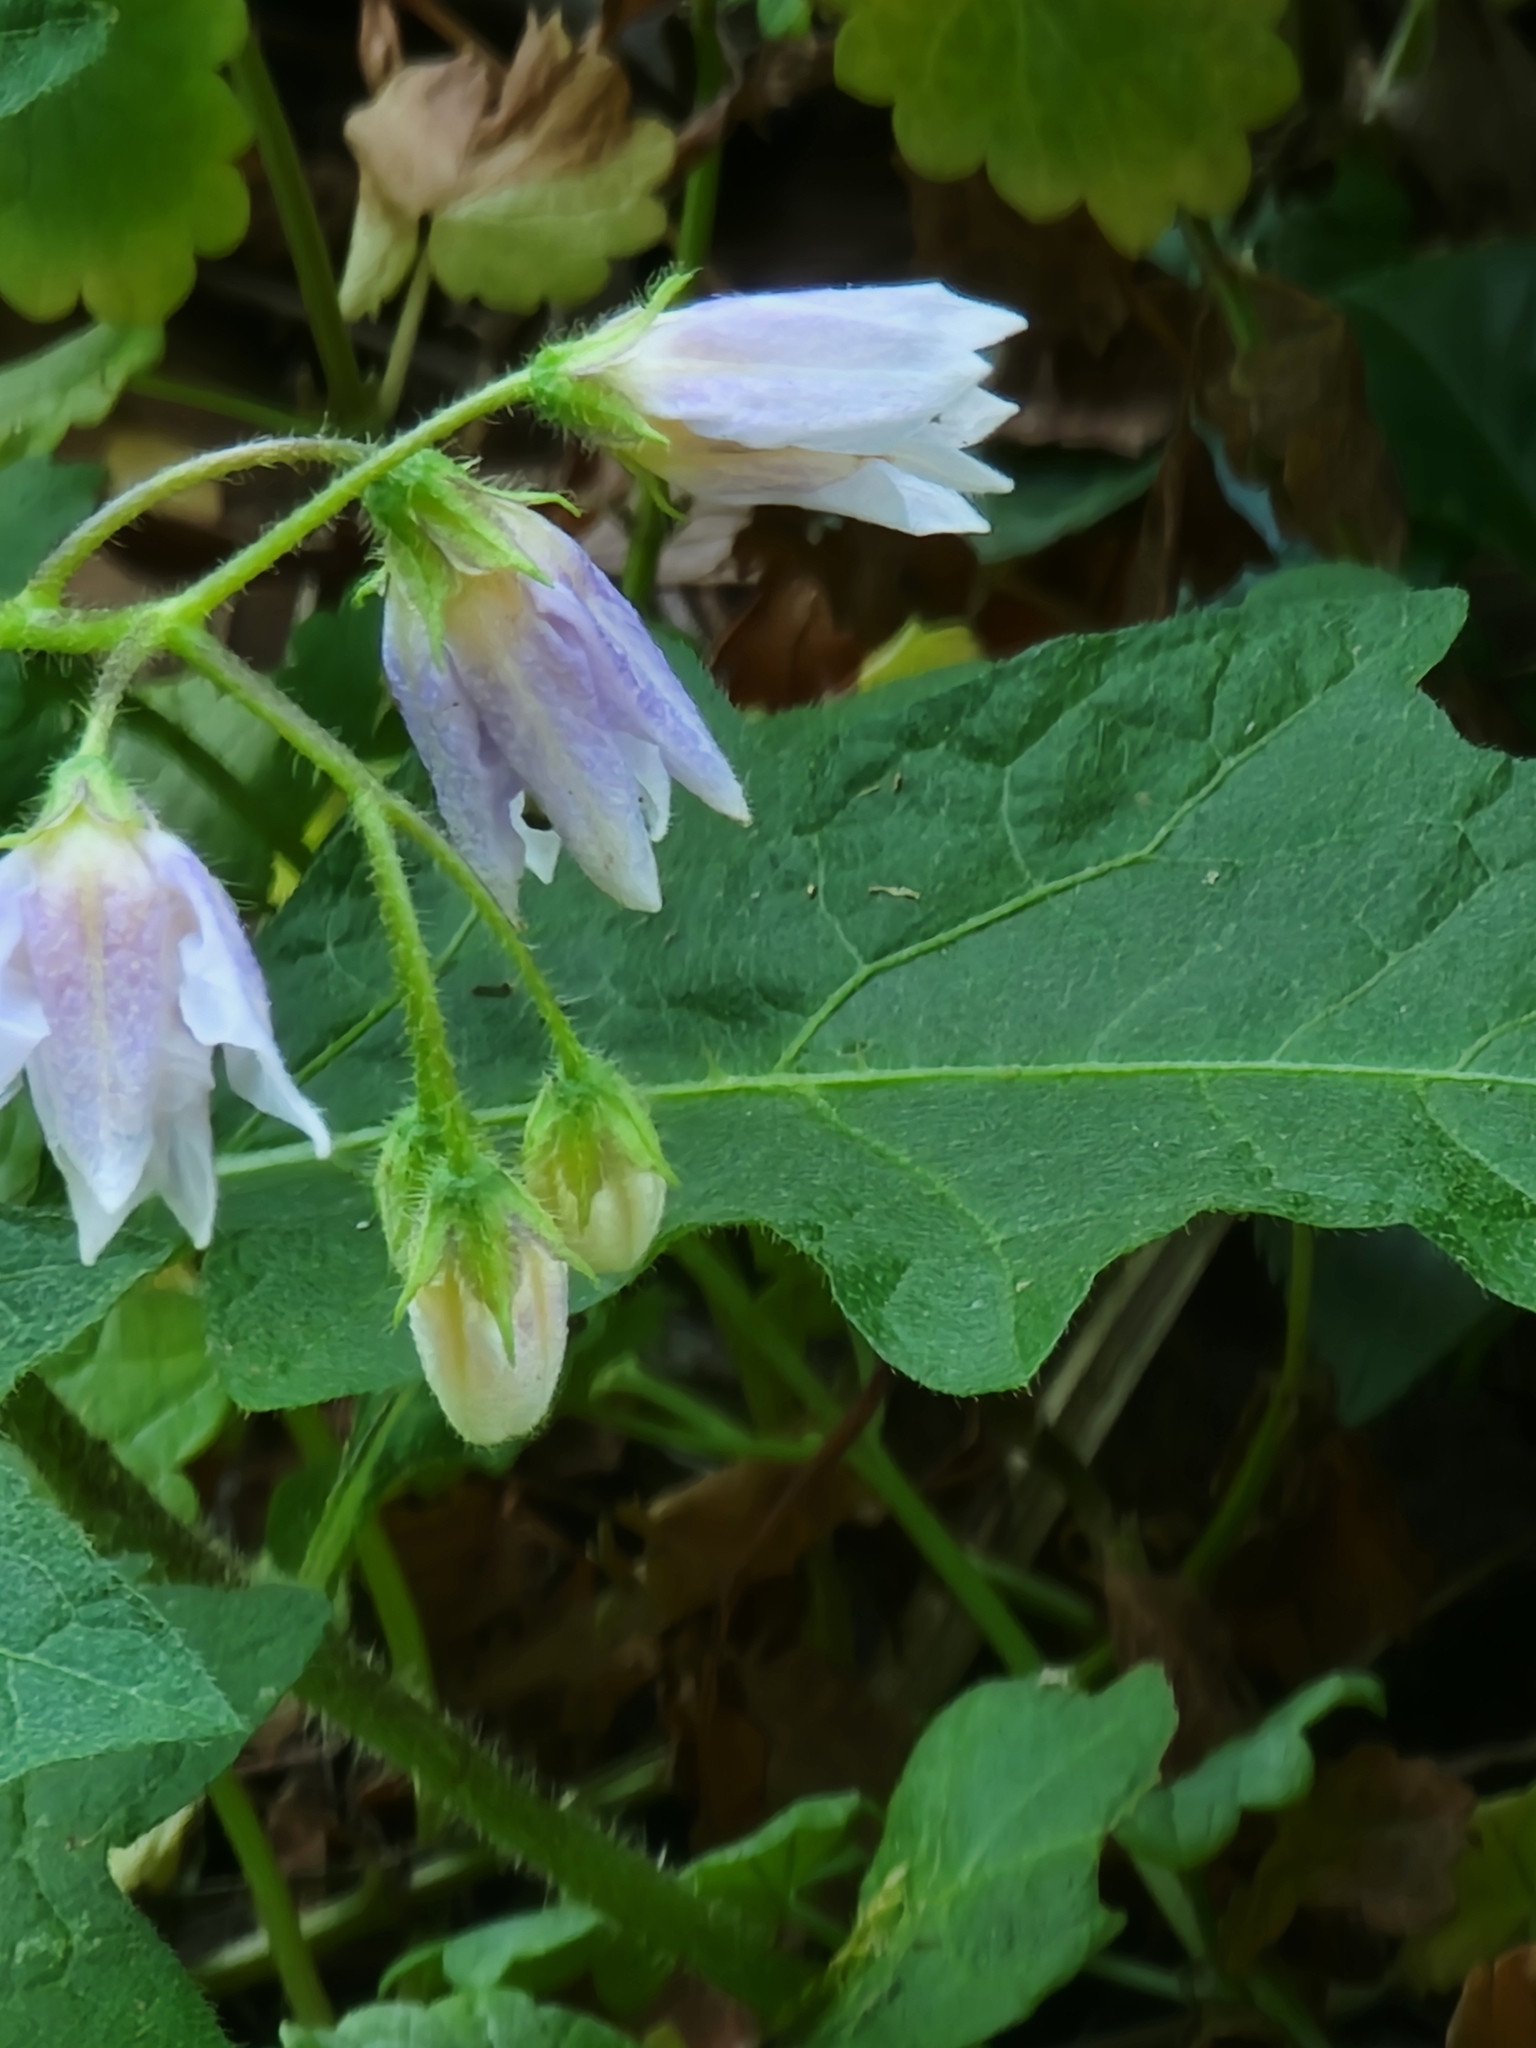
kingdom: Plantae
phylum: Tracheophyta
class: Magnoliopsida
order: Solanales
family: Solanaceae
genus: Solanum
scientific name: Solanum carolinense
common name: Horse-nettle
